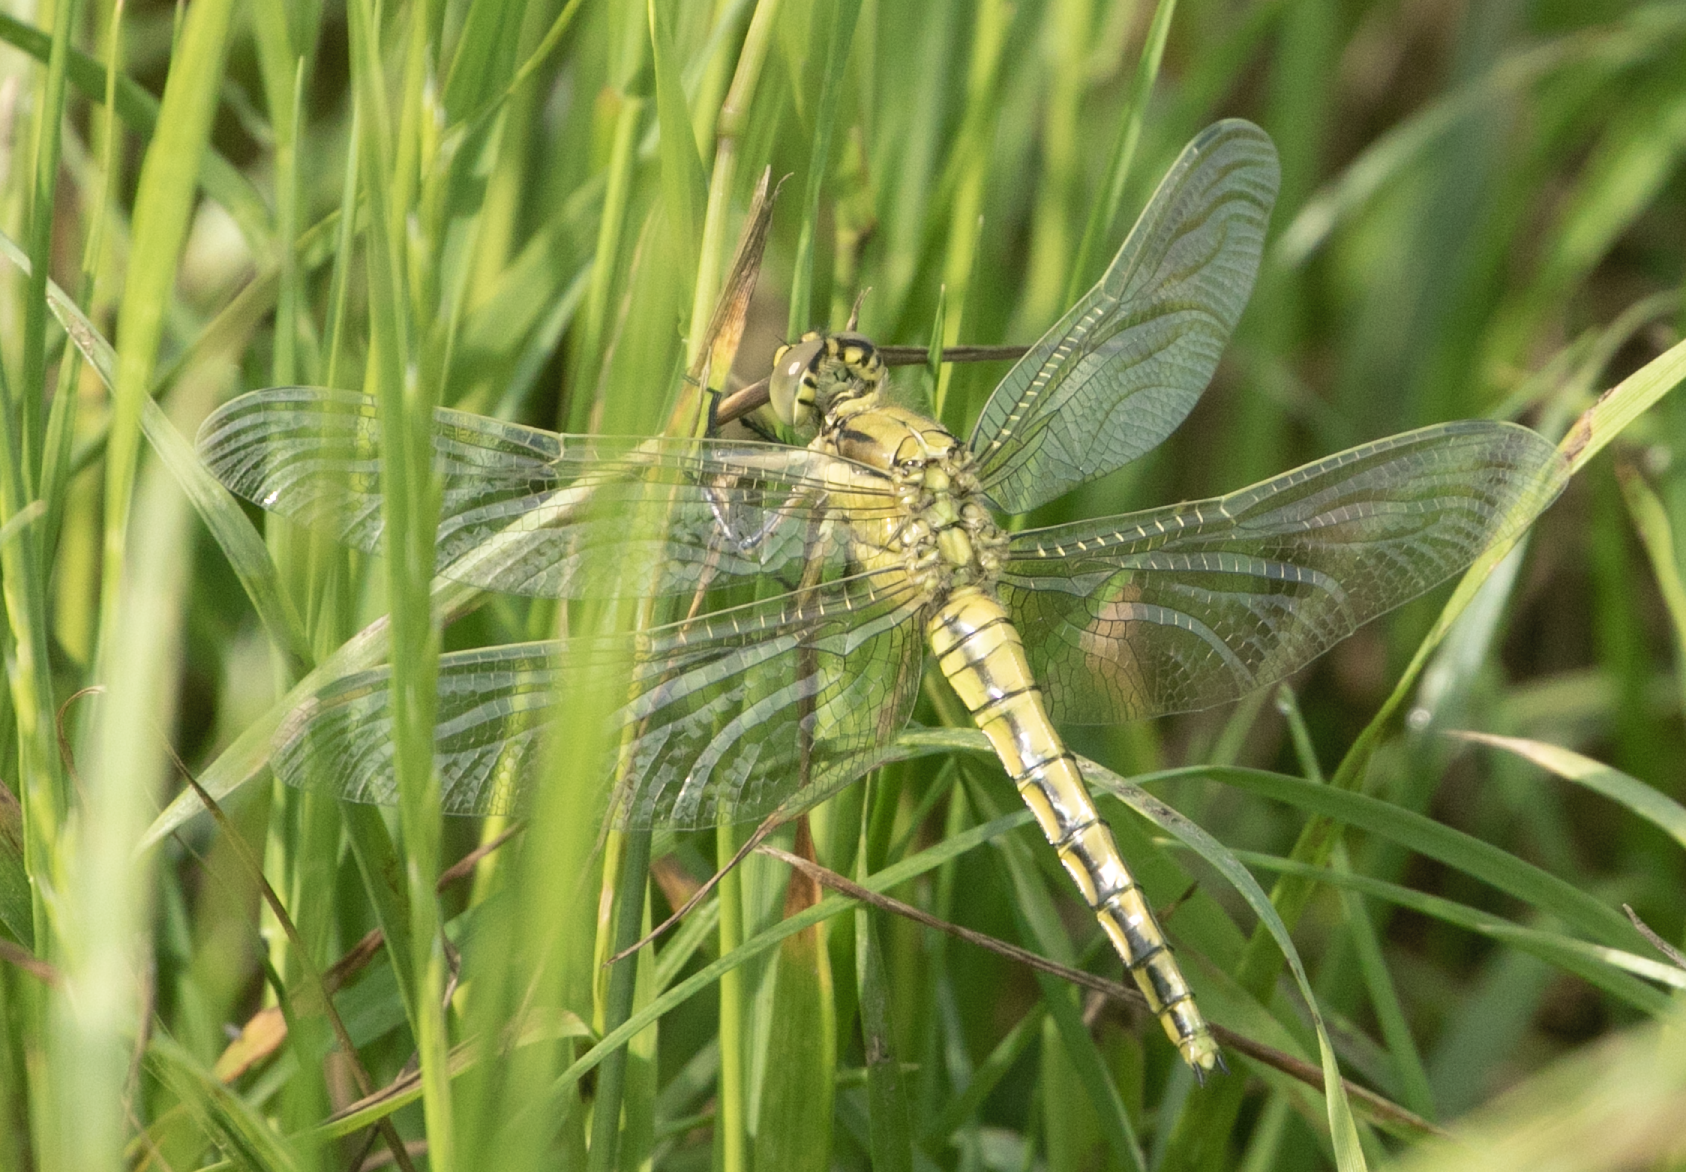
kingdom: Animalia
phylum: Arthropoda
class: Insecta
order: Odonata
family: Libellulidae
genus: Orthetrum
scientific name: Orthetrum cancellatum
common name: Black-tailed skimmer
